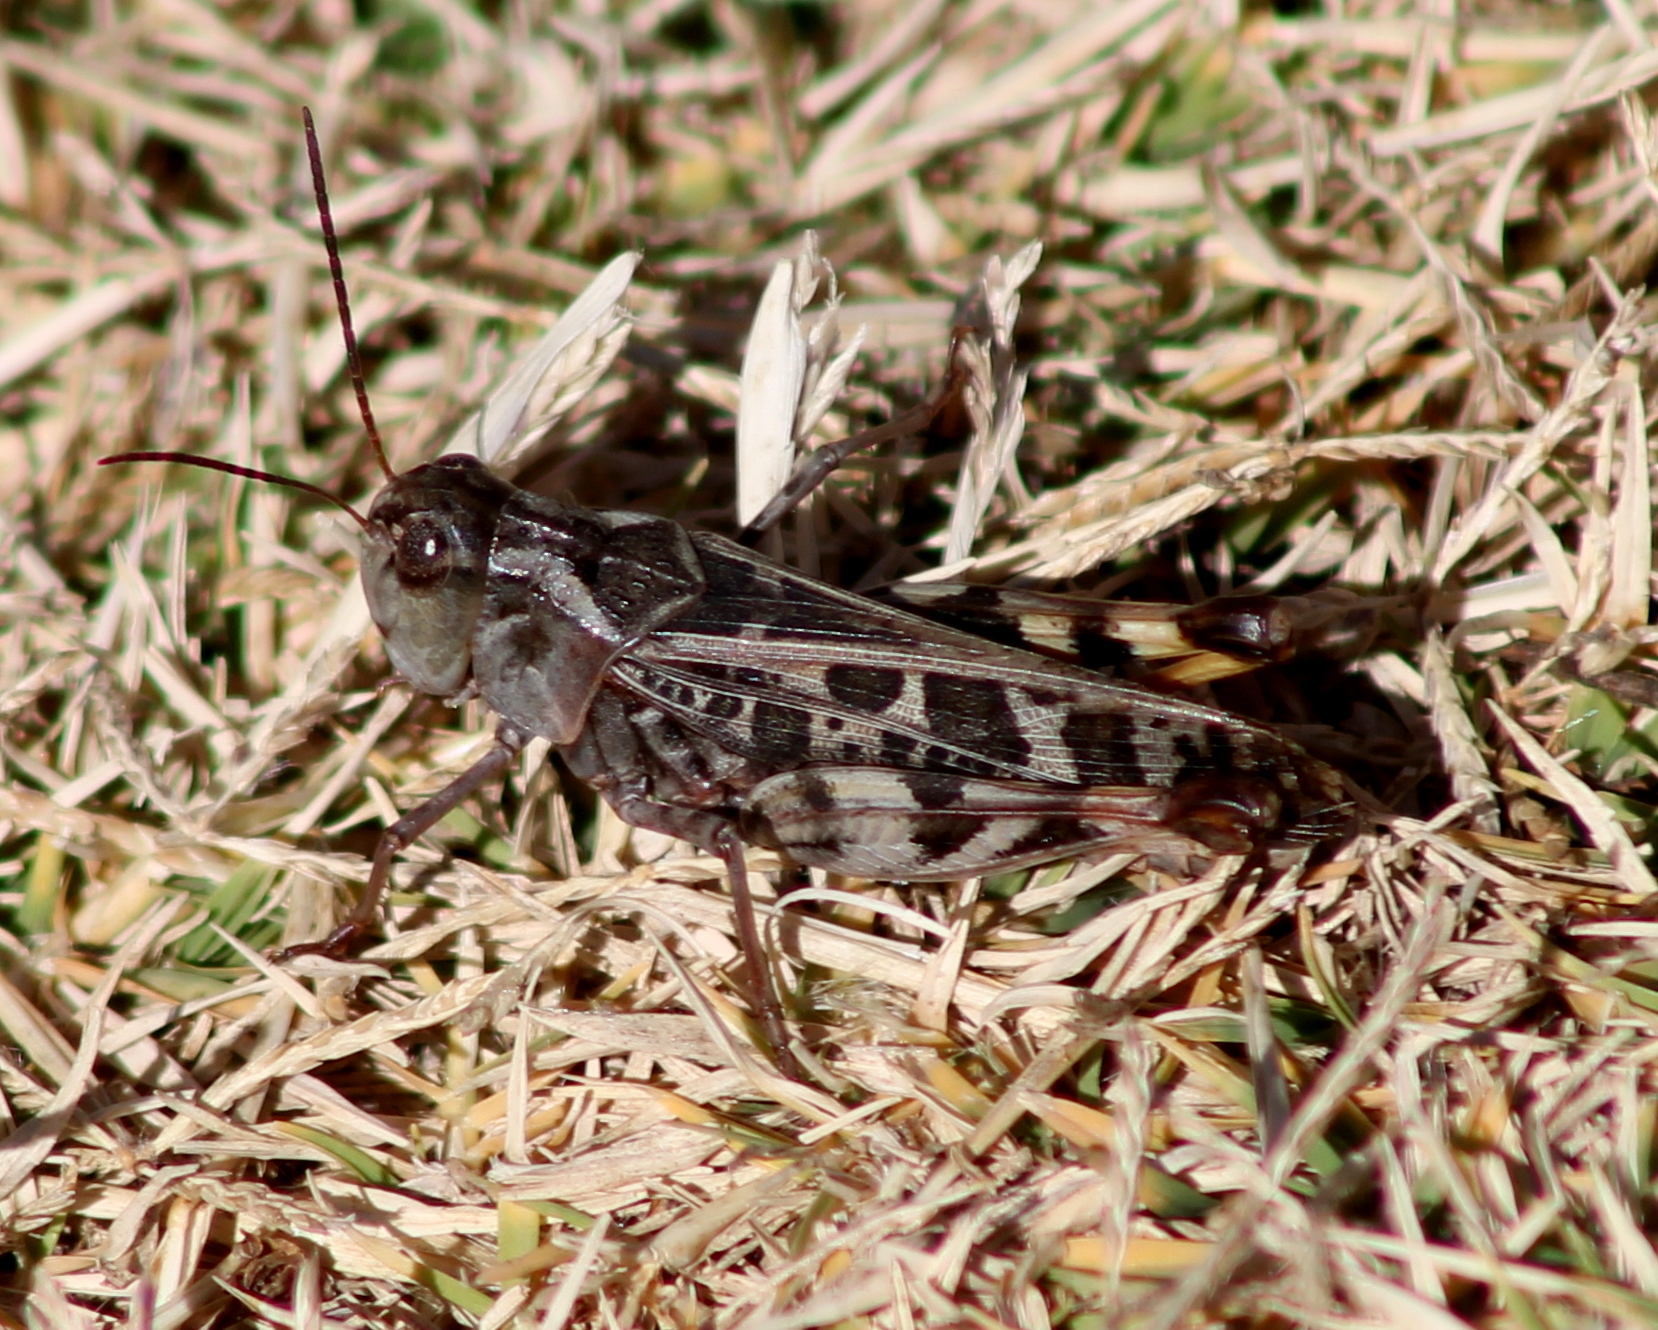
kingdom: Animalia
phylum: Arthropoda
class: Insecta
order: Orthoptera
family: Acrididae
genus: Hippiscus
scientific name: Hippiscus ocelote
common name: Wrinkled grasshopper
